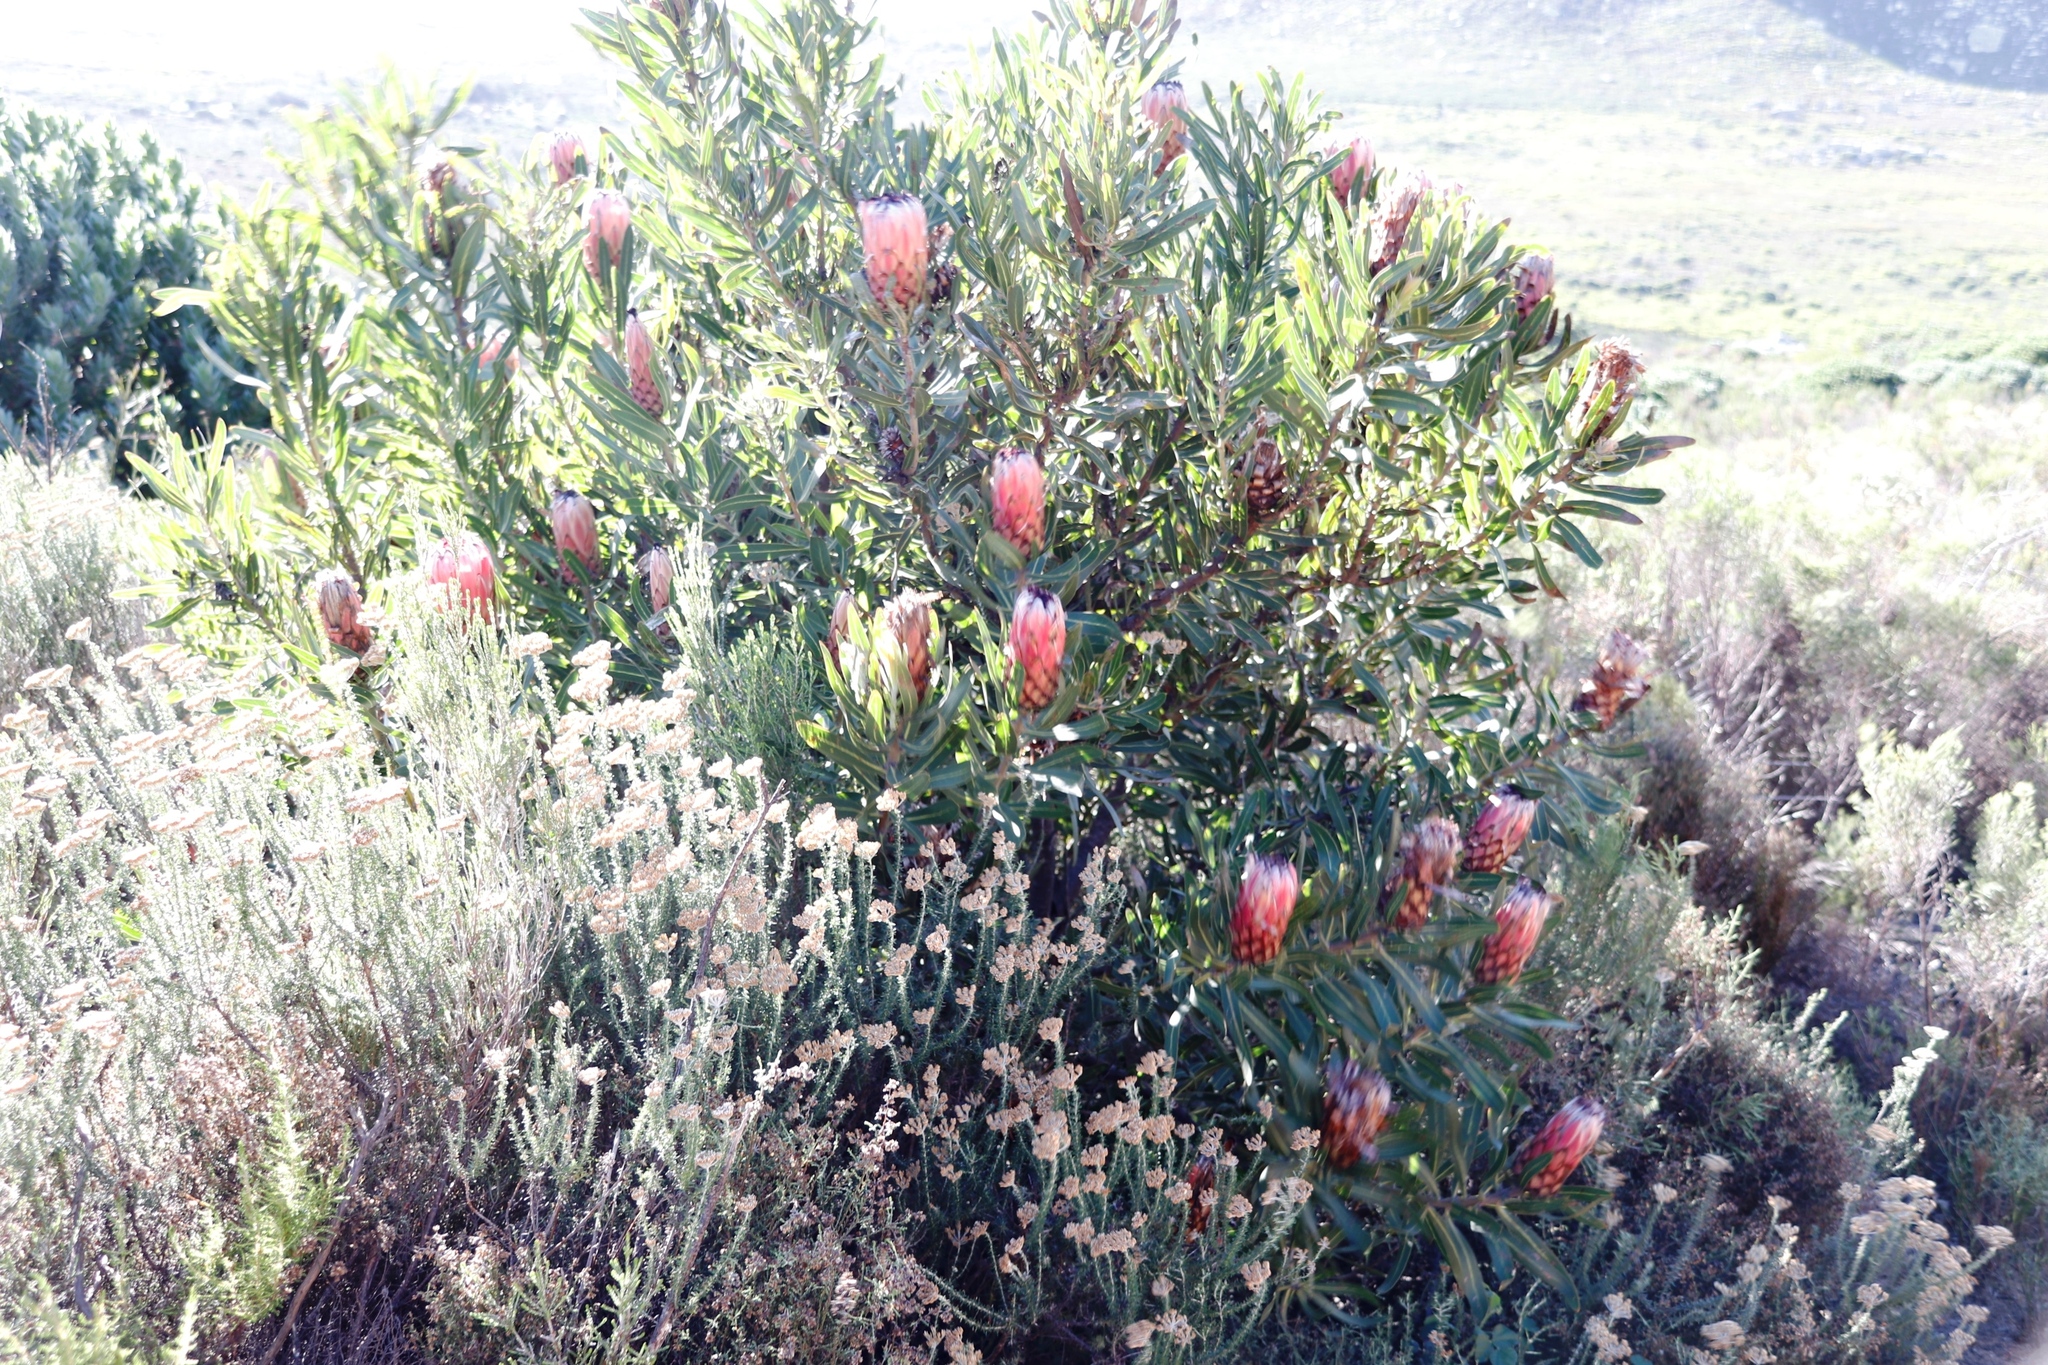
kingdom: Plantae
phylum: Tracheophyta
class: Magnoliopsida
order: Proteales
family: Proteaceae
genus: Protea
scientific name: Protea repens
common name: Sugarbush
